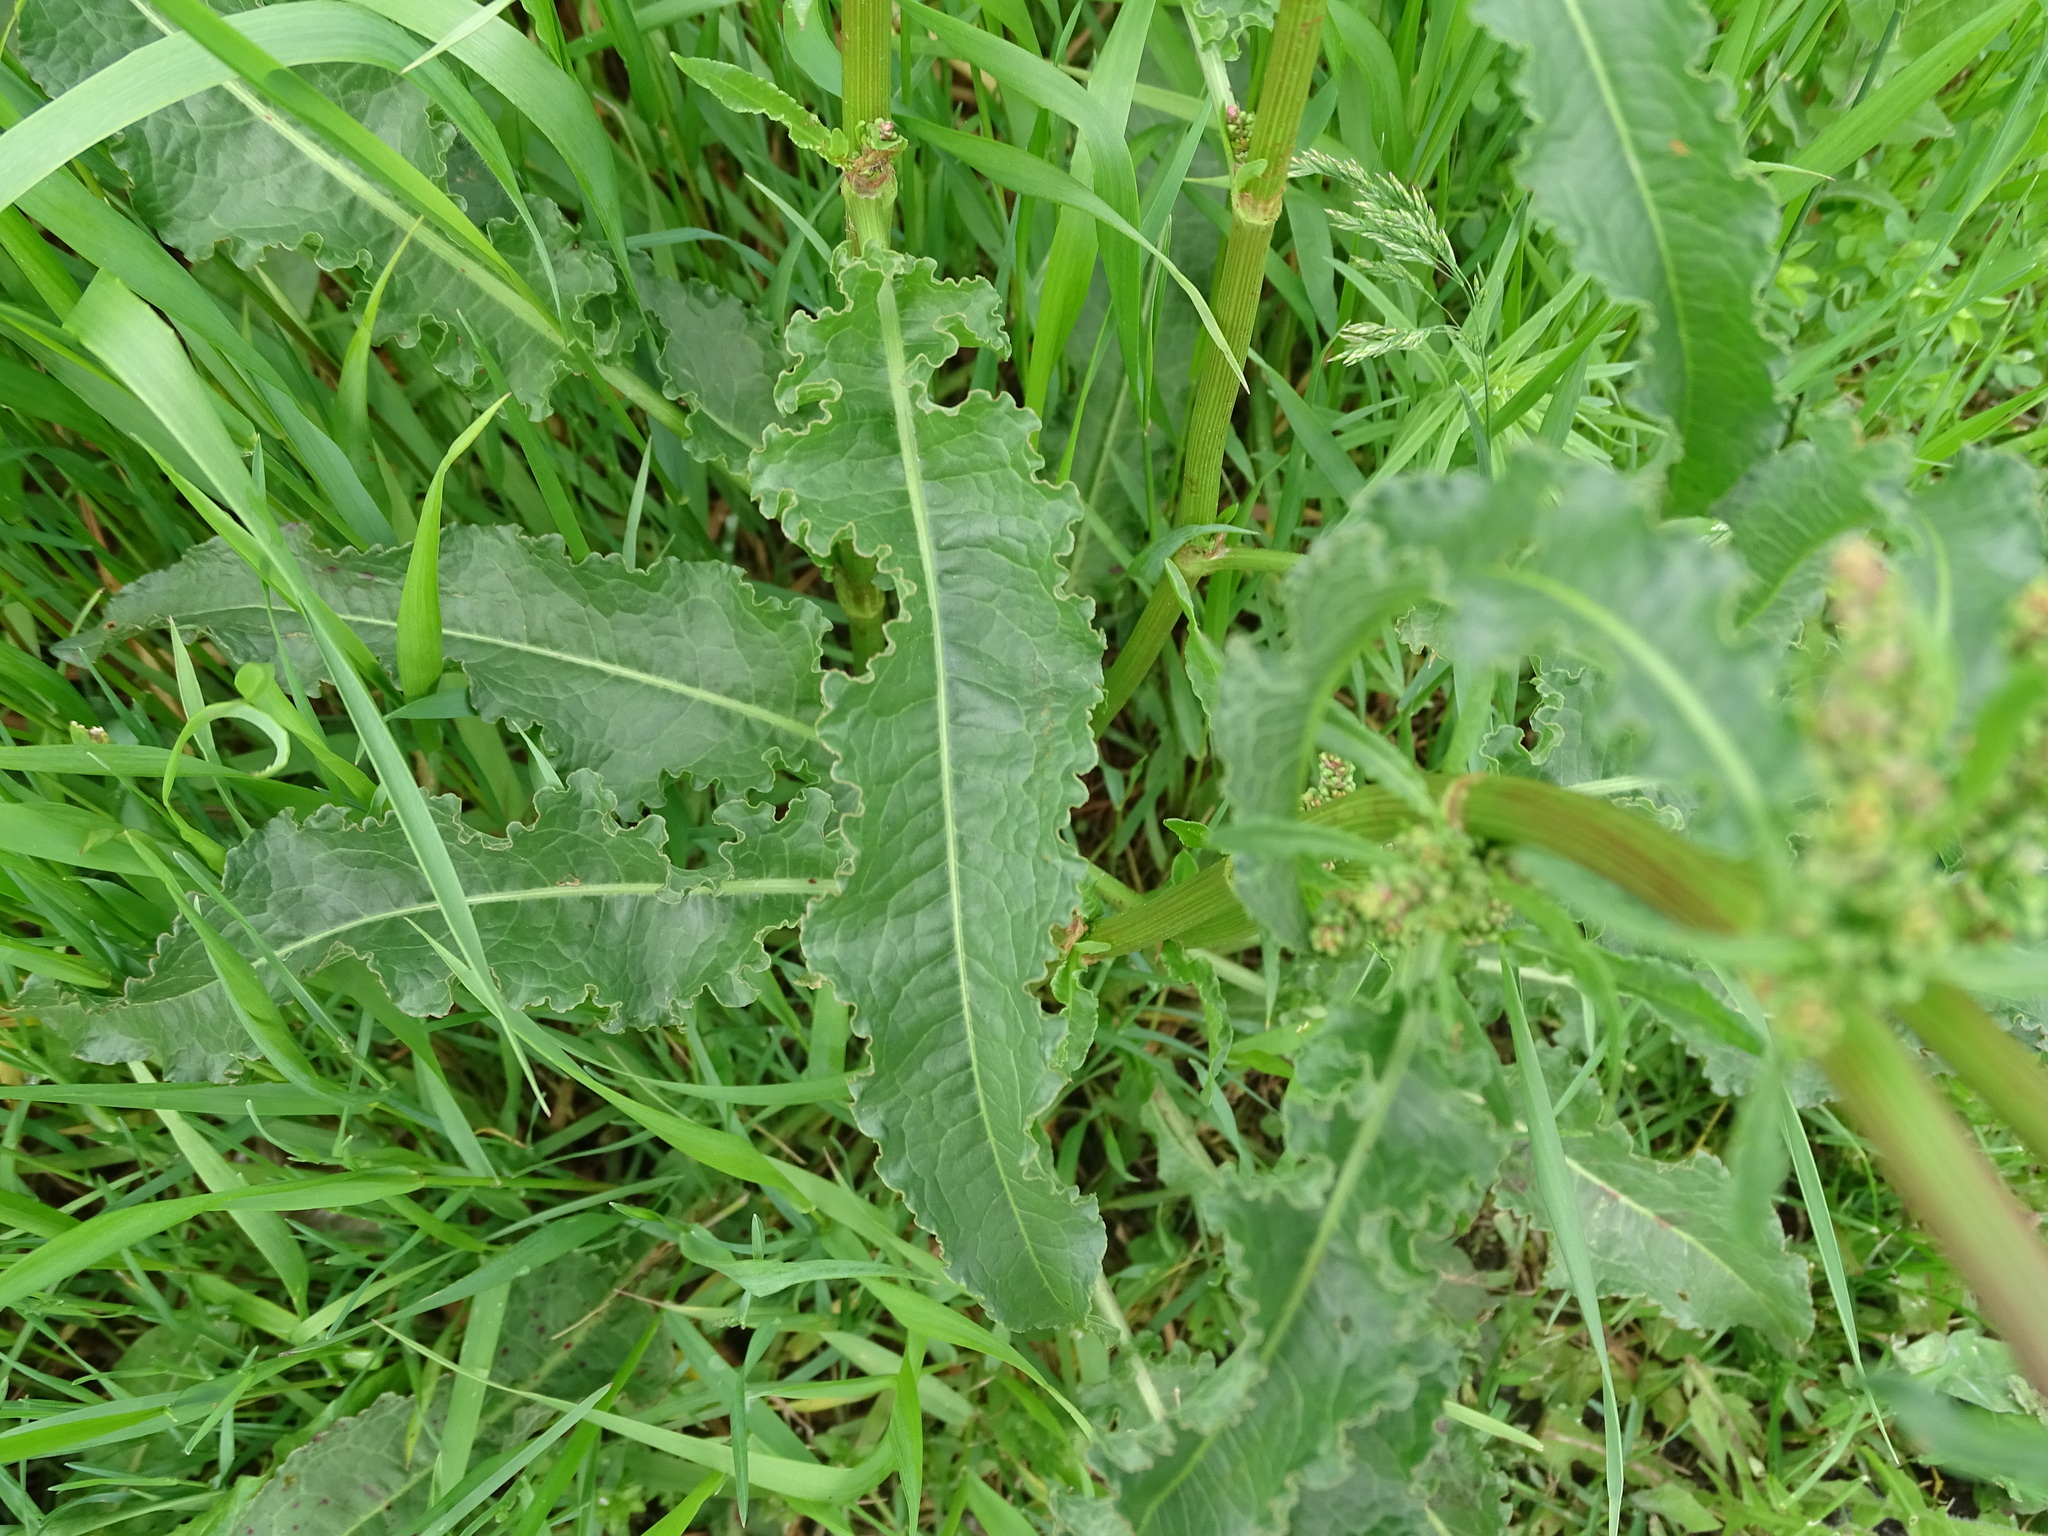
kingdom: Plantae
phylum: Tracheophyta
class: Magnoliopsida
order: Caryophyllales
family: Polygonaceae
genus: Rumex
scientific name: Rumex crispus
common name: Curled dock
